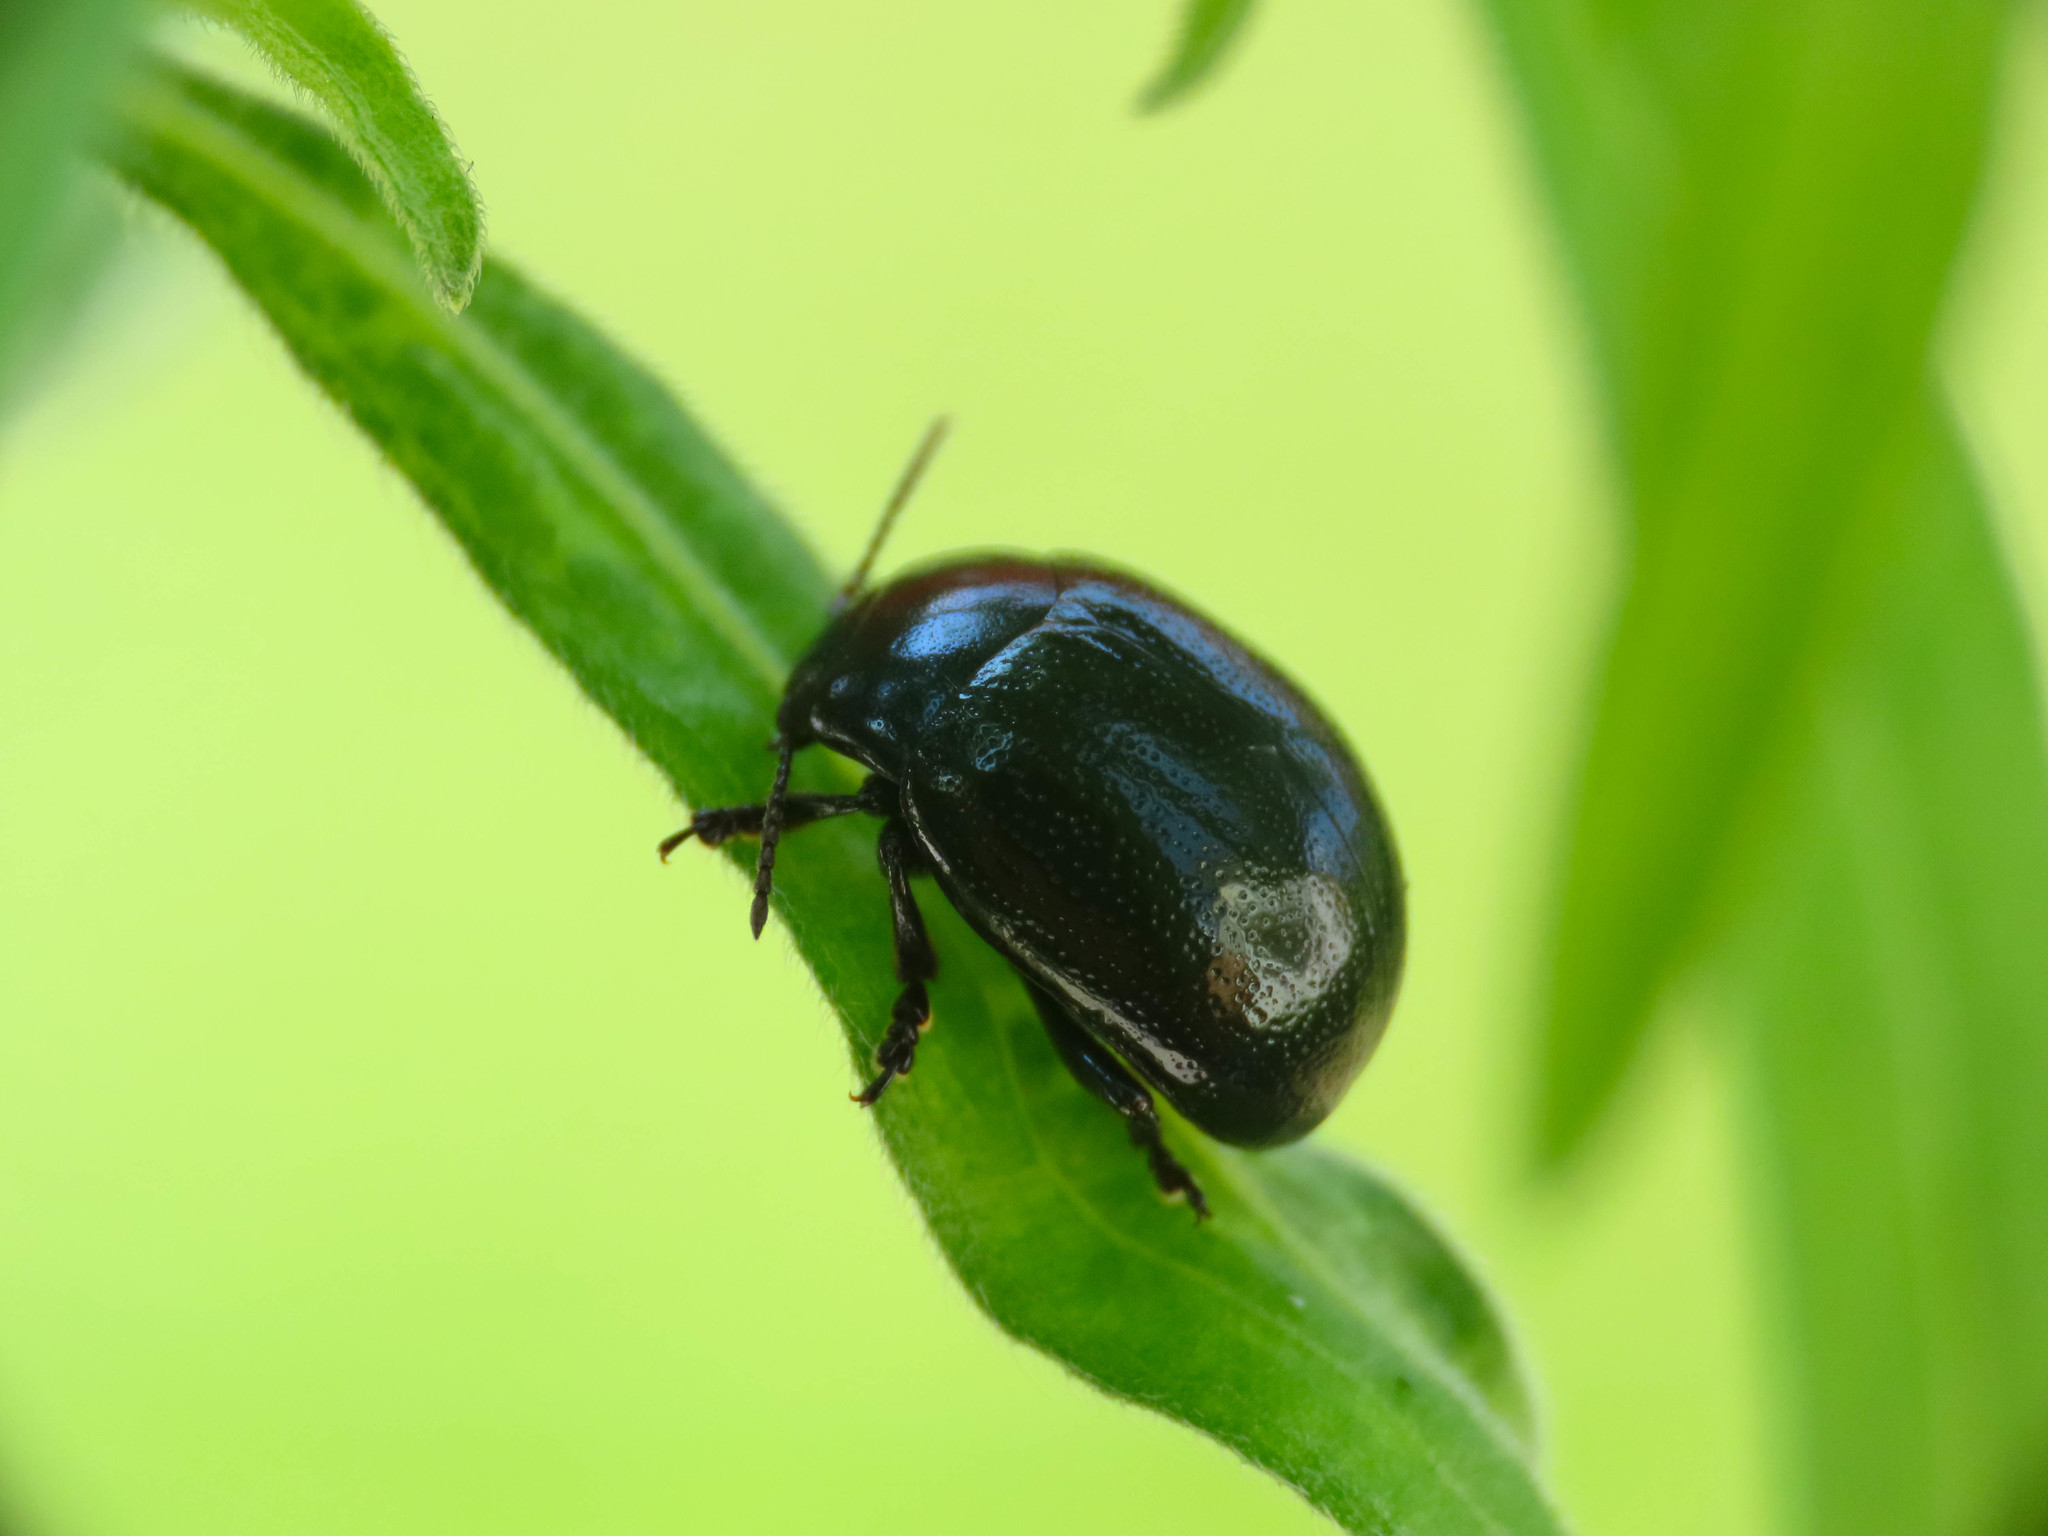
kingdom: Animalia
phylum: Arthropoda
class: Insecta
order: Coleoptera
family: Chrysomelidae
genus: Chrysolina
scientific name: Chrysolina haemoptera
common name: Plantain leaf beetle
